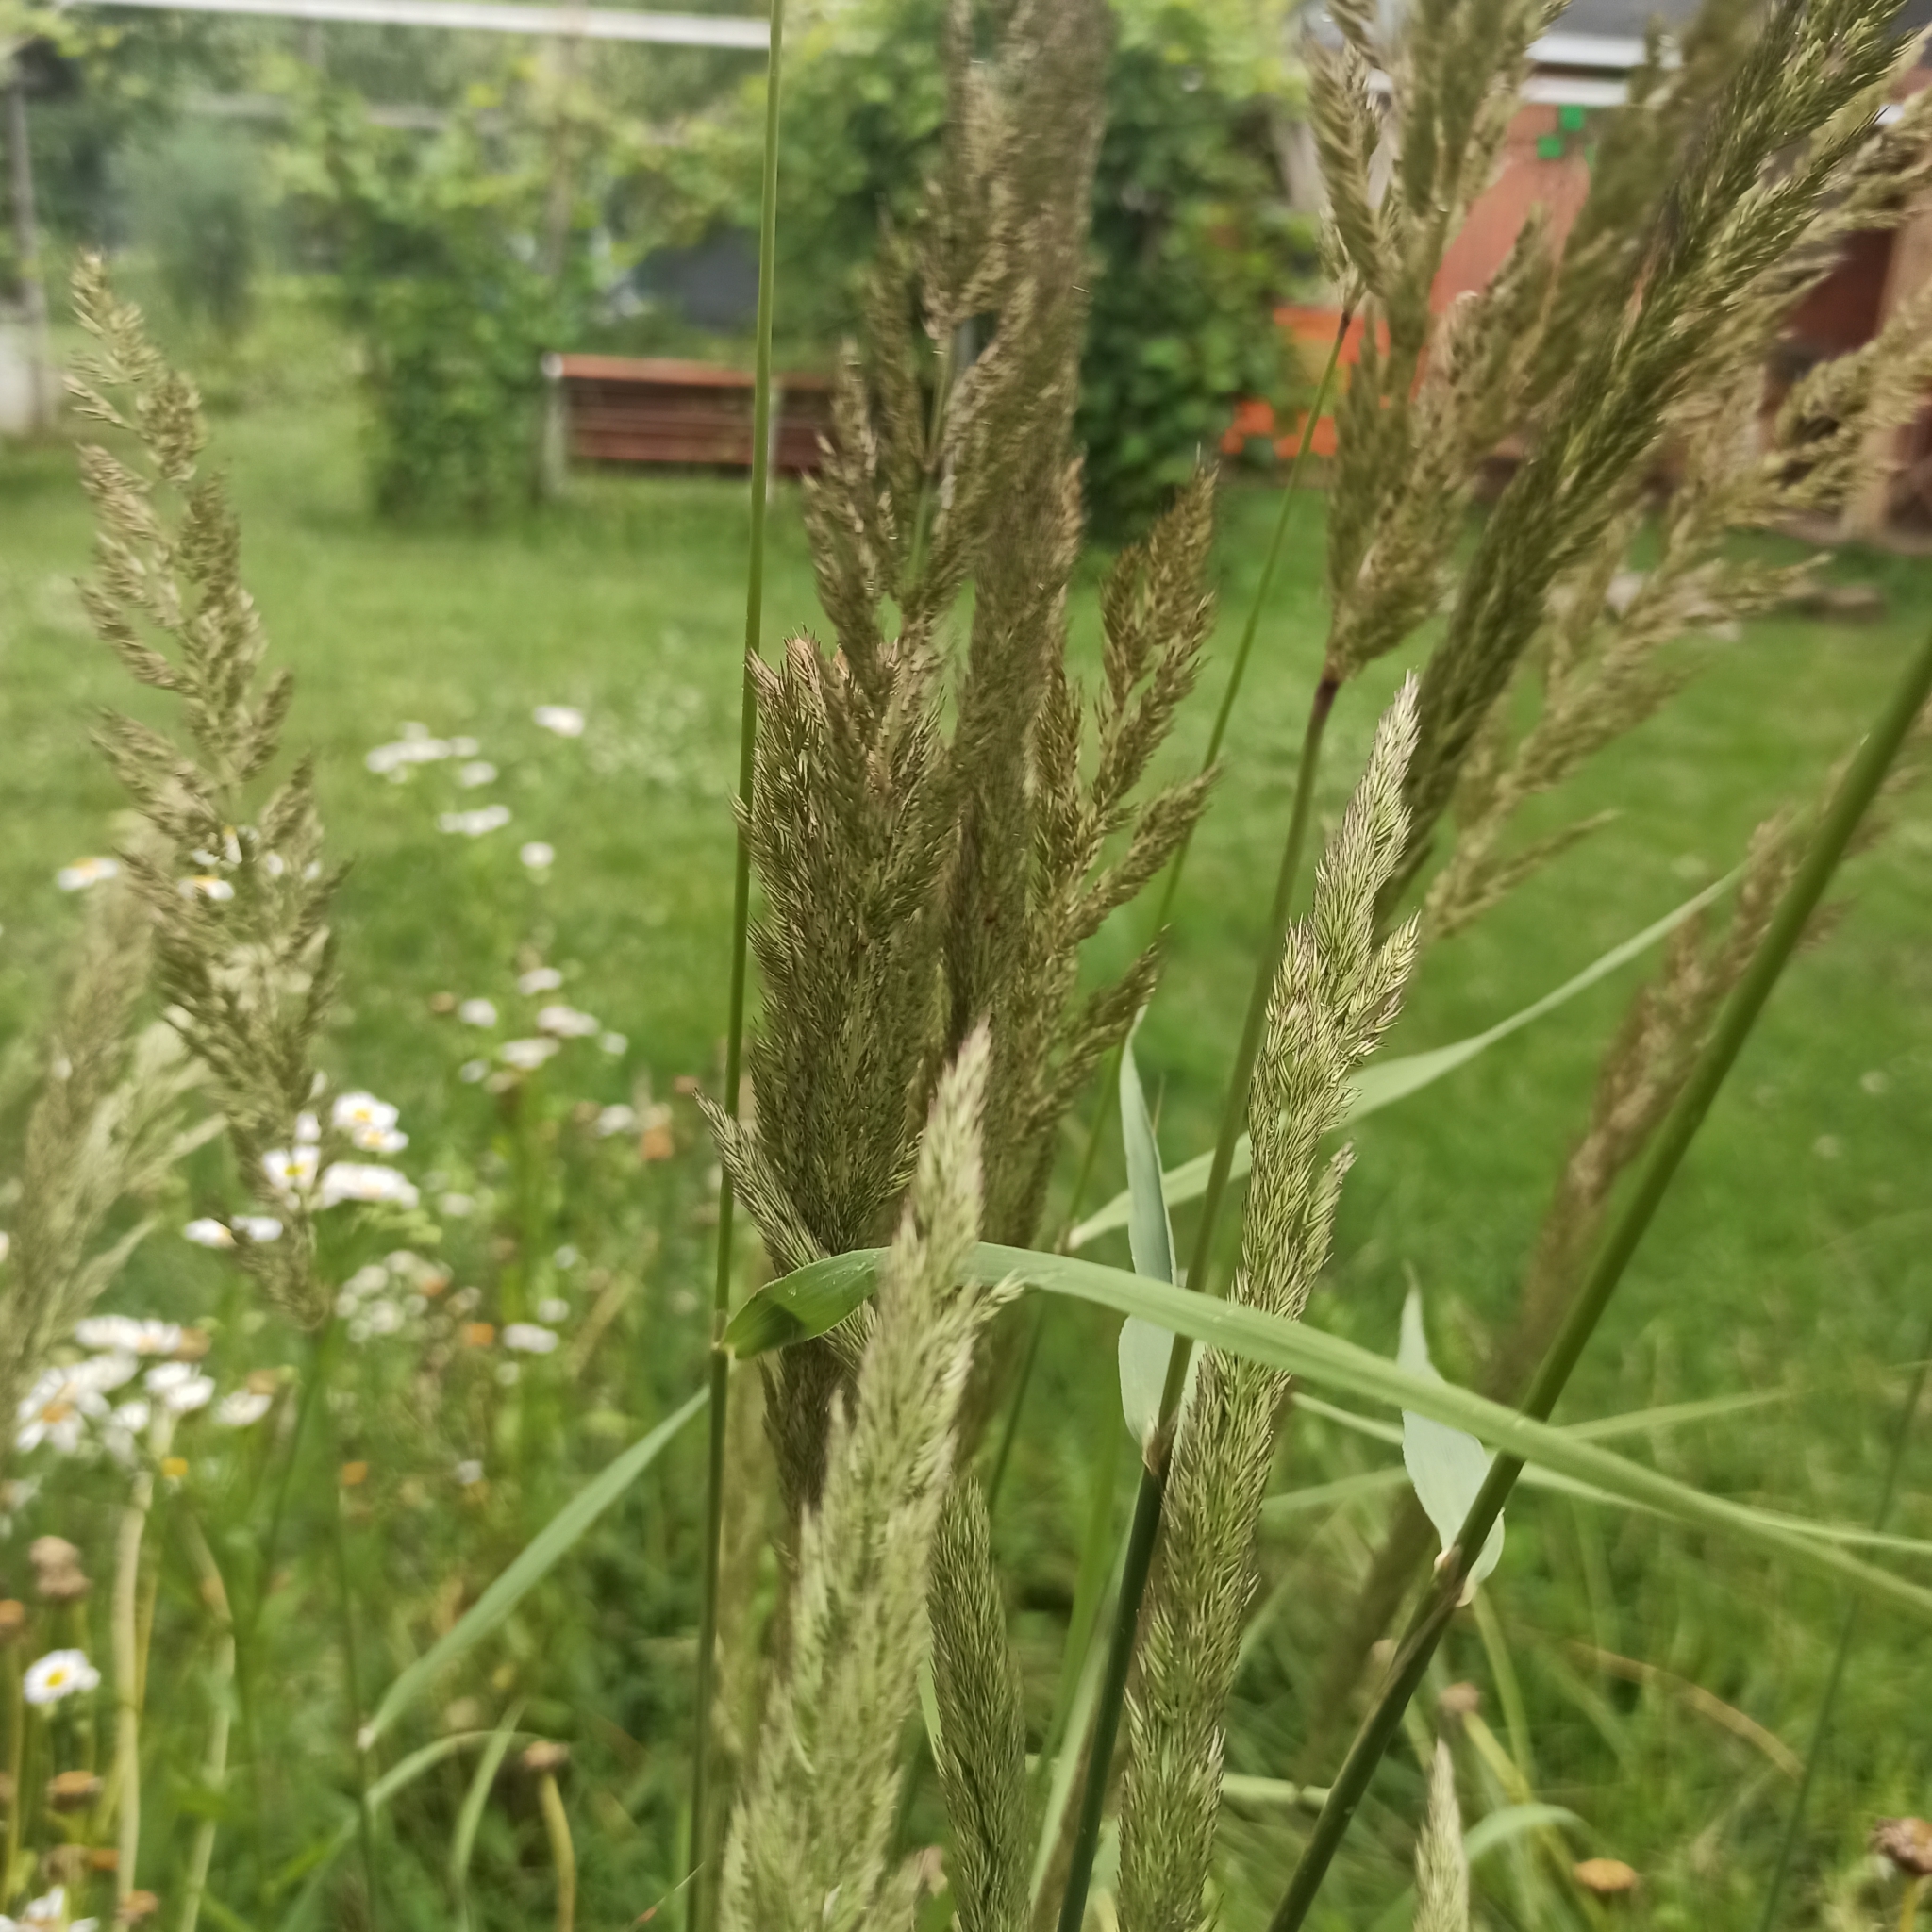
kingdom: Plantae
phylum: Tracheophyta
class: Liliopsida
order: Poales
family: Poaceae
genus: Calamagrostis
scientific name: Calamagrostis epigejos
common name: Wood small-reed
